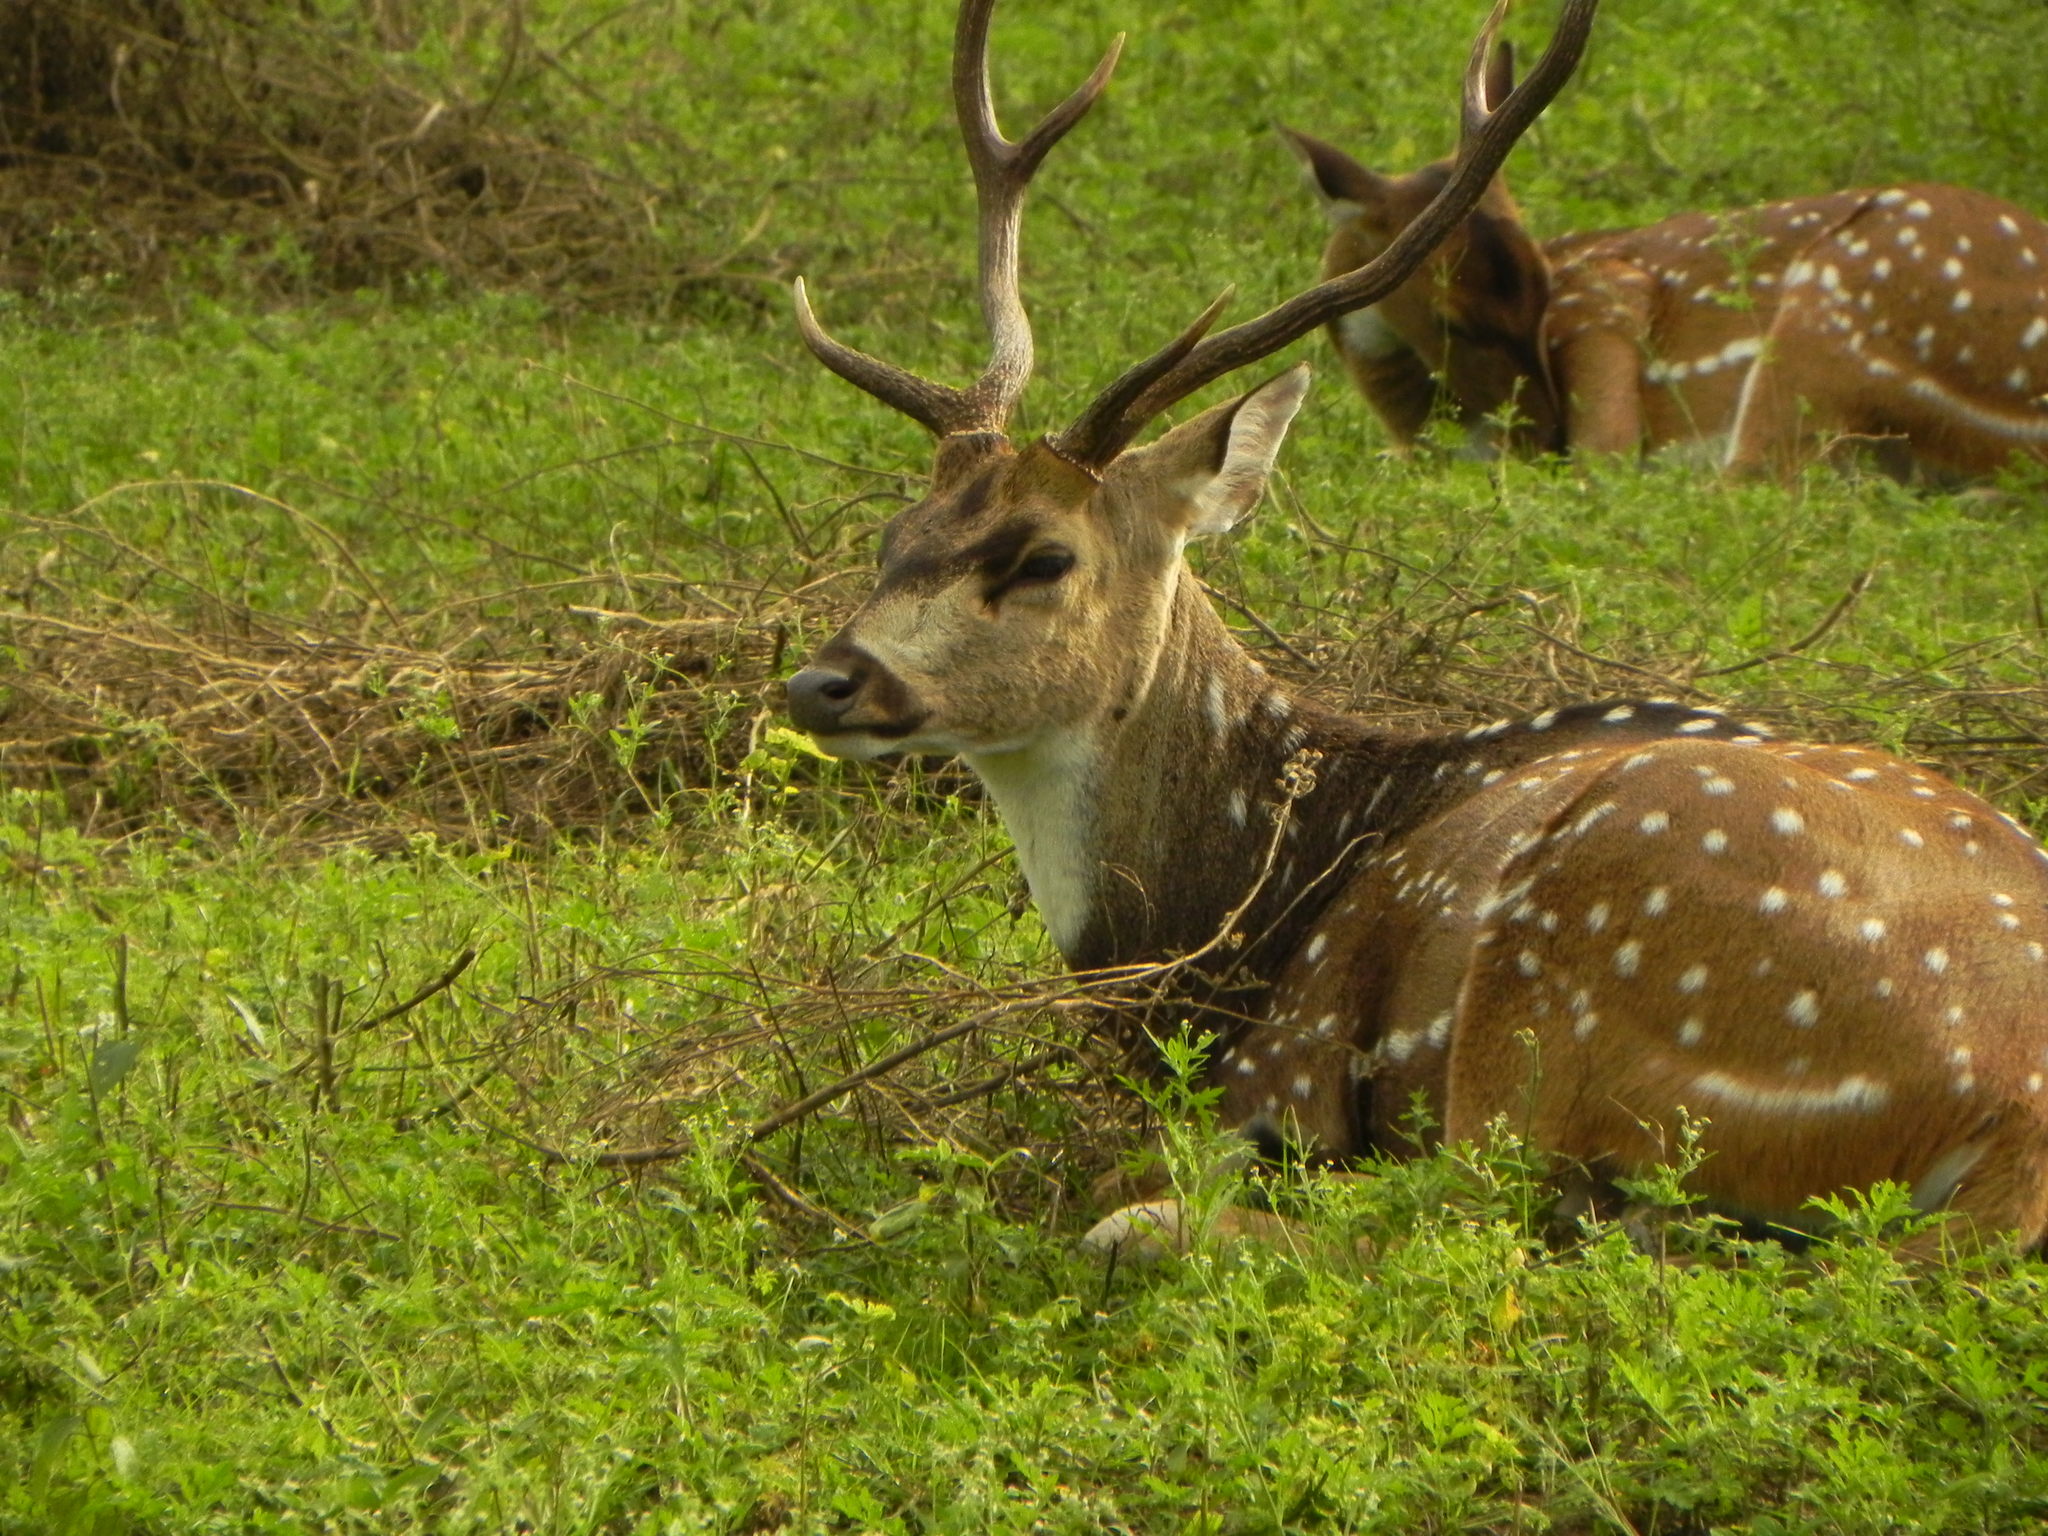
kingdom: Animalia
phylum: Chordata
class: Mammalia
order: Artiodactyla
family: Cervidae
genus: Axis
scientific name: Axis axis
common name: Chital
